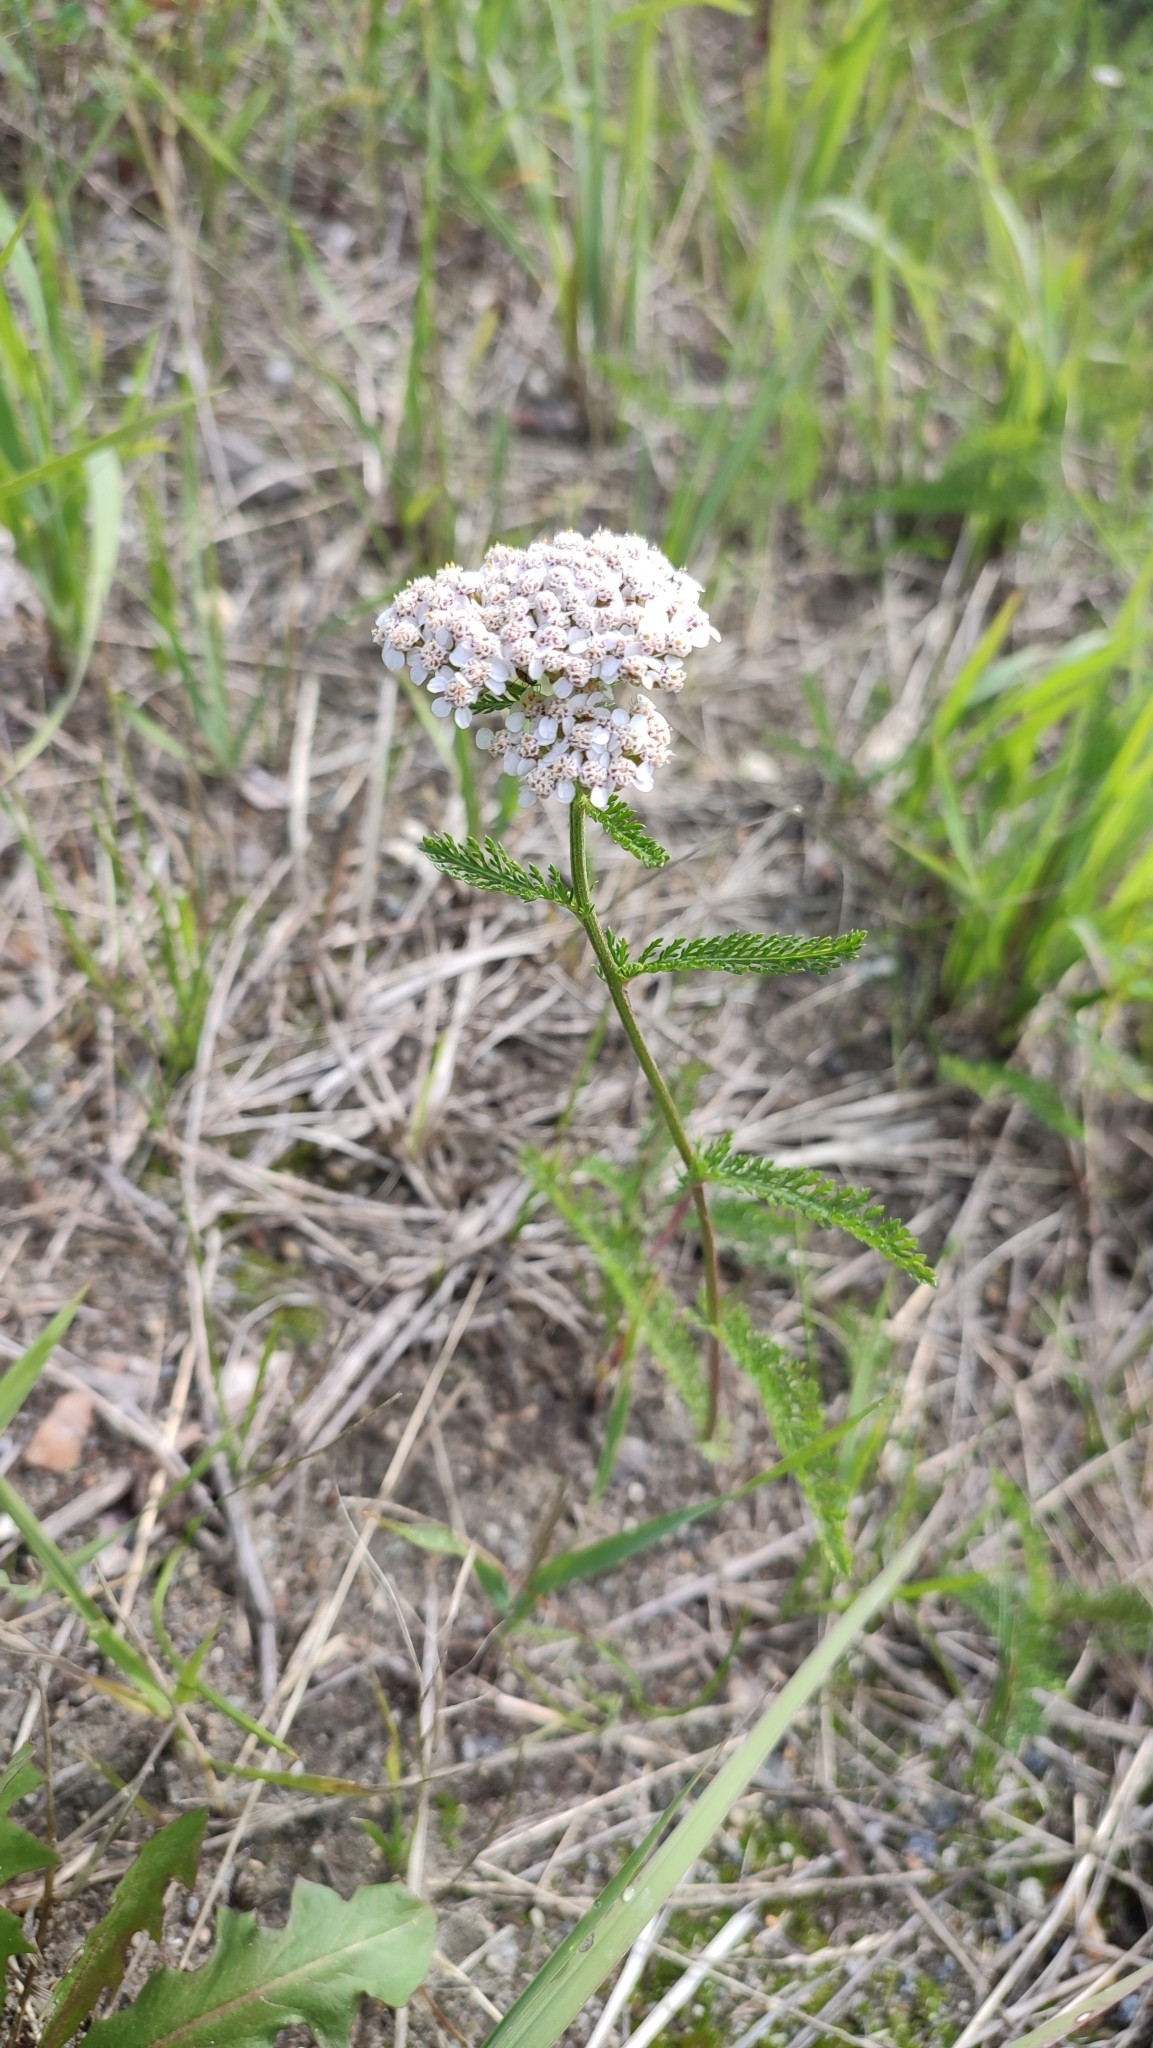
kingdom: Plantae
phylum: Tracheophyta
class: Magnoliopsida
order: Asterales
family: Asteraceae
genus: Achillea
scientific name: Achillea asiatica
